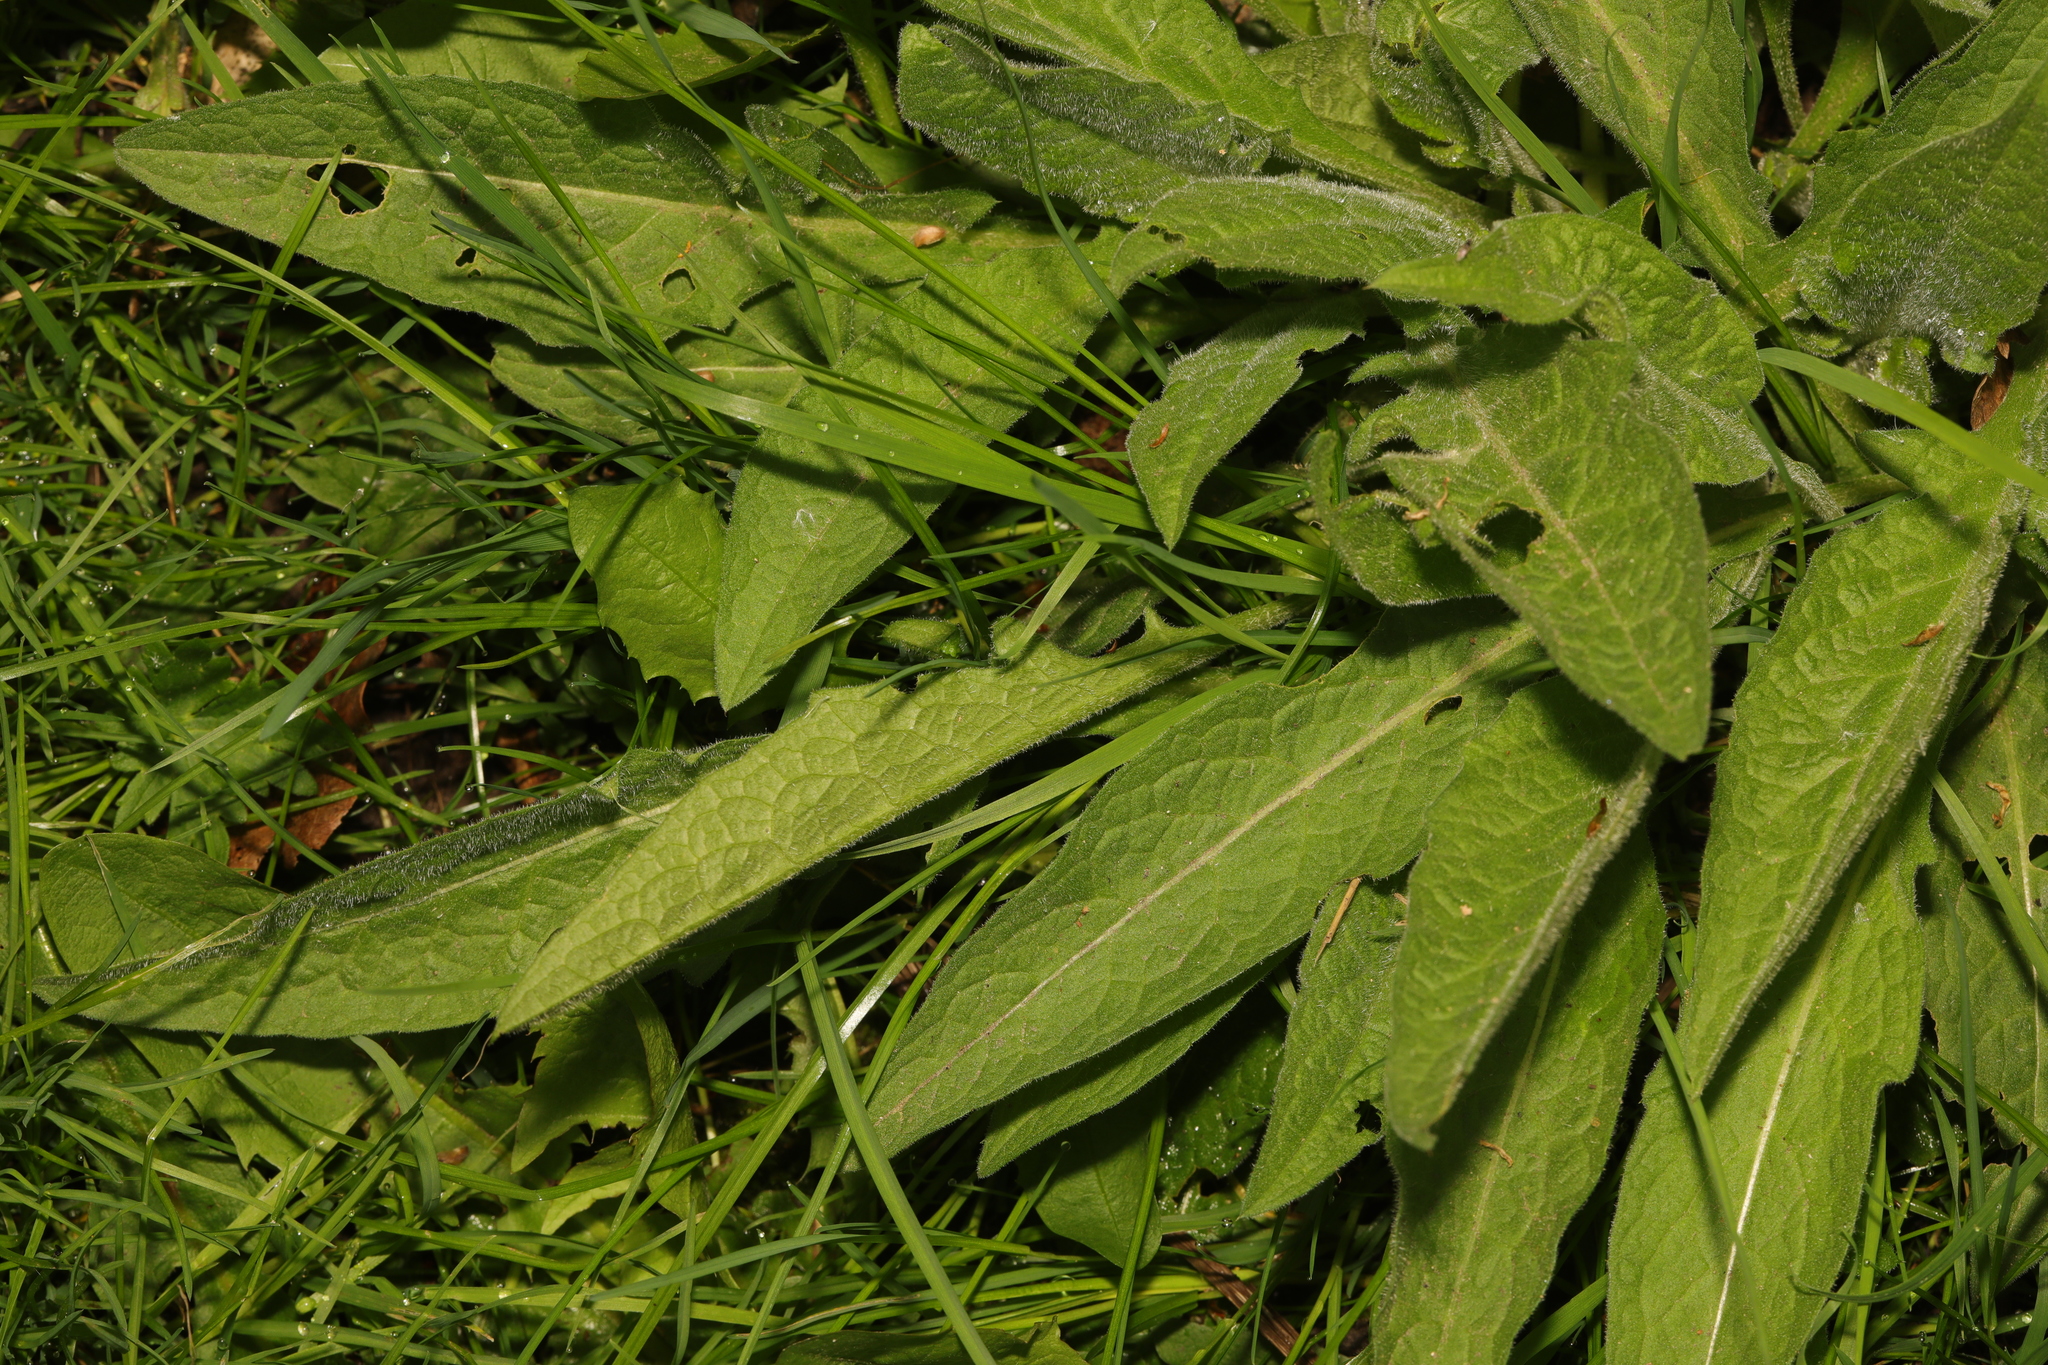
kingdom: Plantae
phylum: Tracheophyta
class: Magnoliopsida
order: Asterales
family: Asteraceae
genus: Centaurea
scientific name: Centaurea nigra
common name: Lesser knapweed
